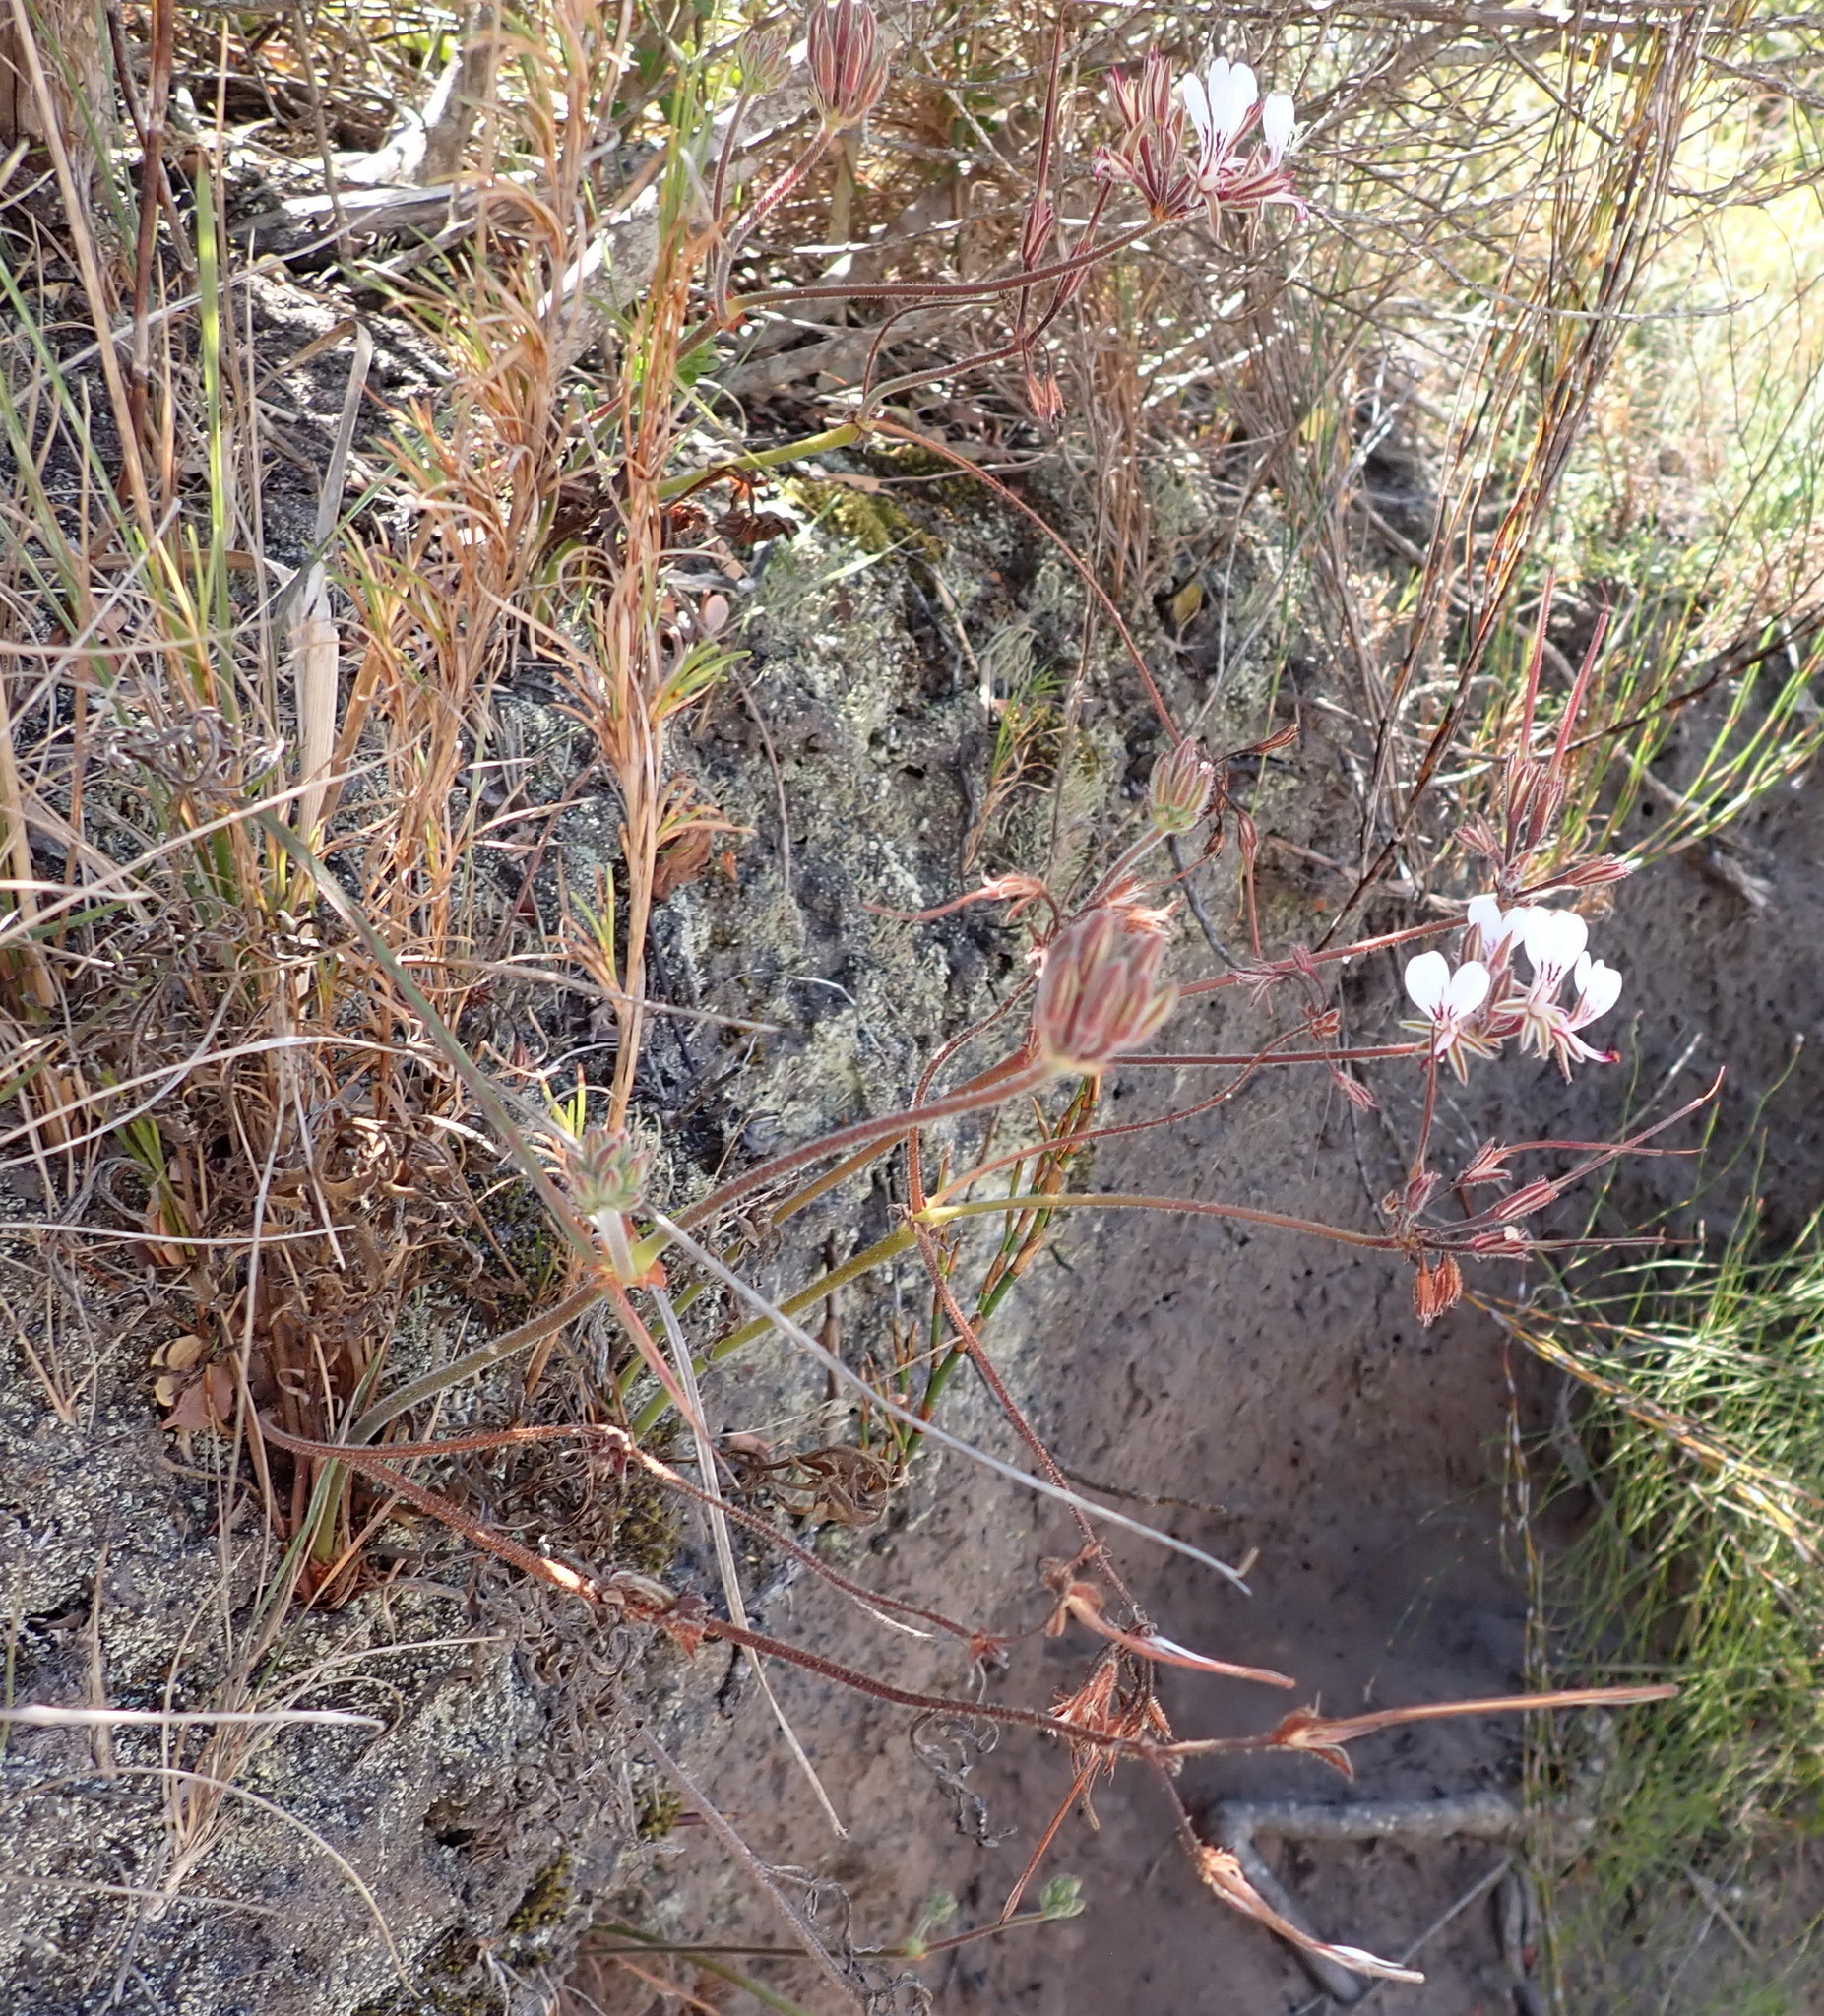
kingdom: Plantae
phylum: Tracheophyta
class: Magnoliopsida
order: Geraniales
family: Geraniaceae
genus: Pelargonium
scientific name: Pelargonium dipetalum
